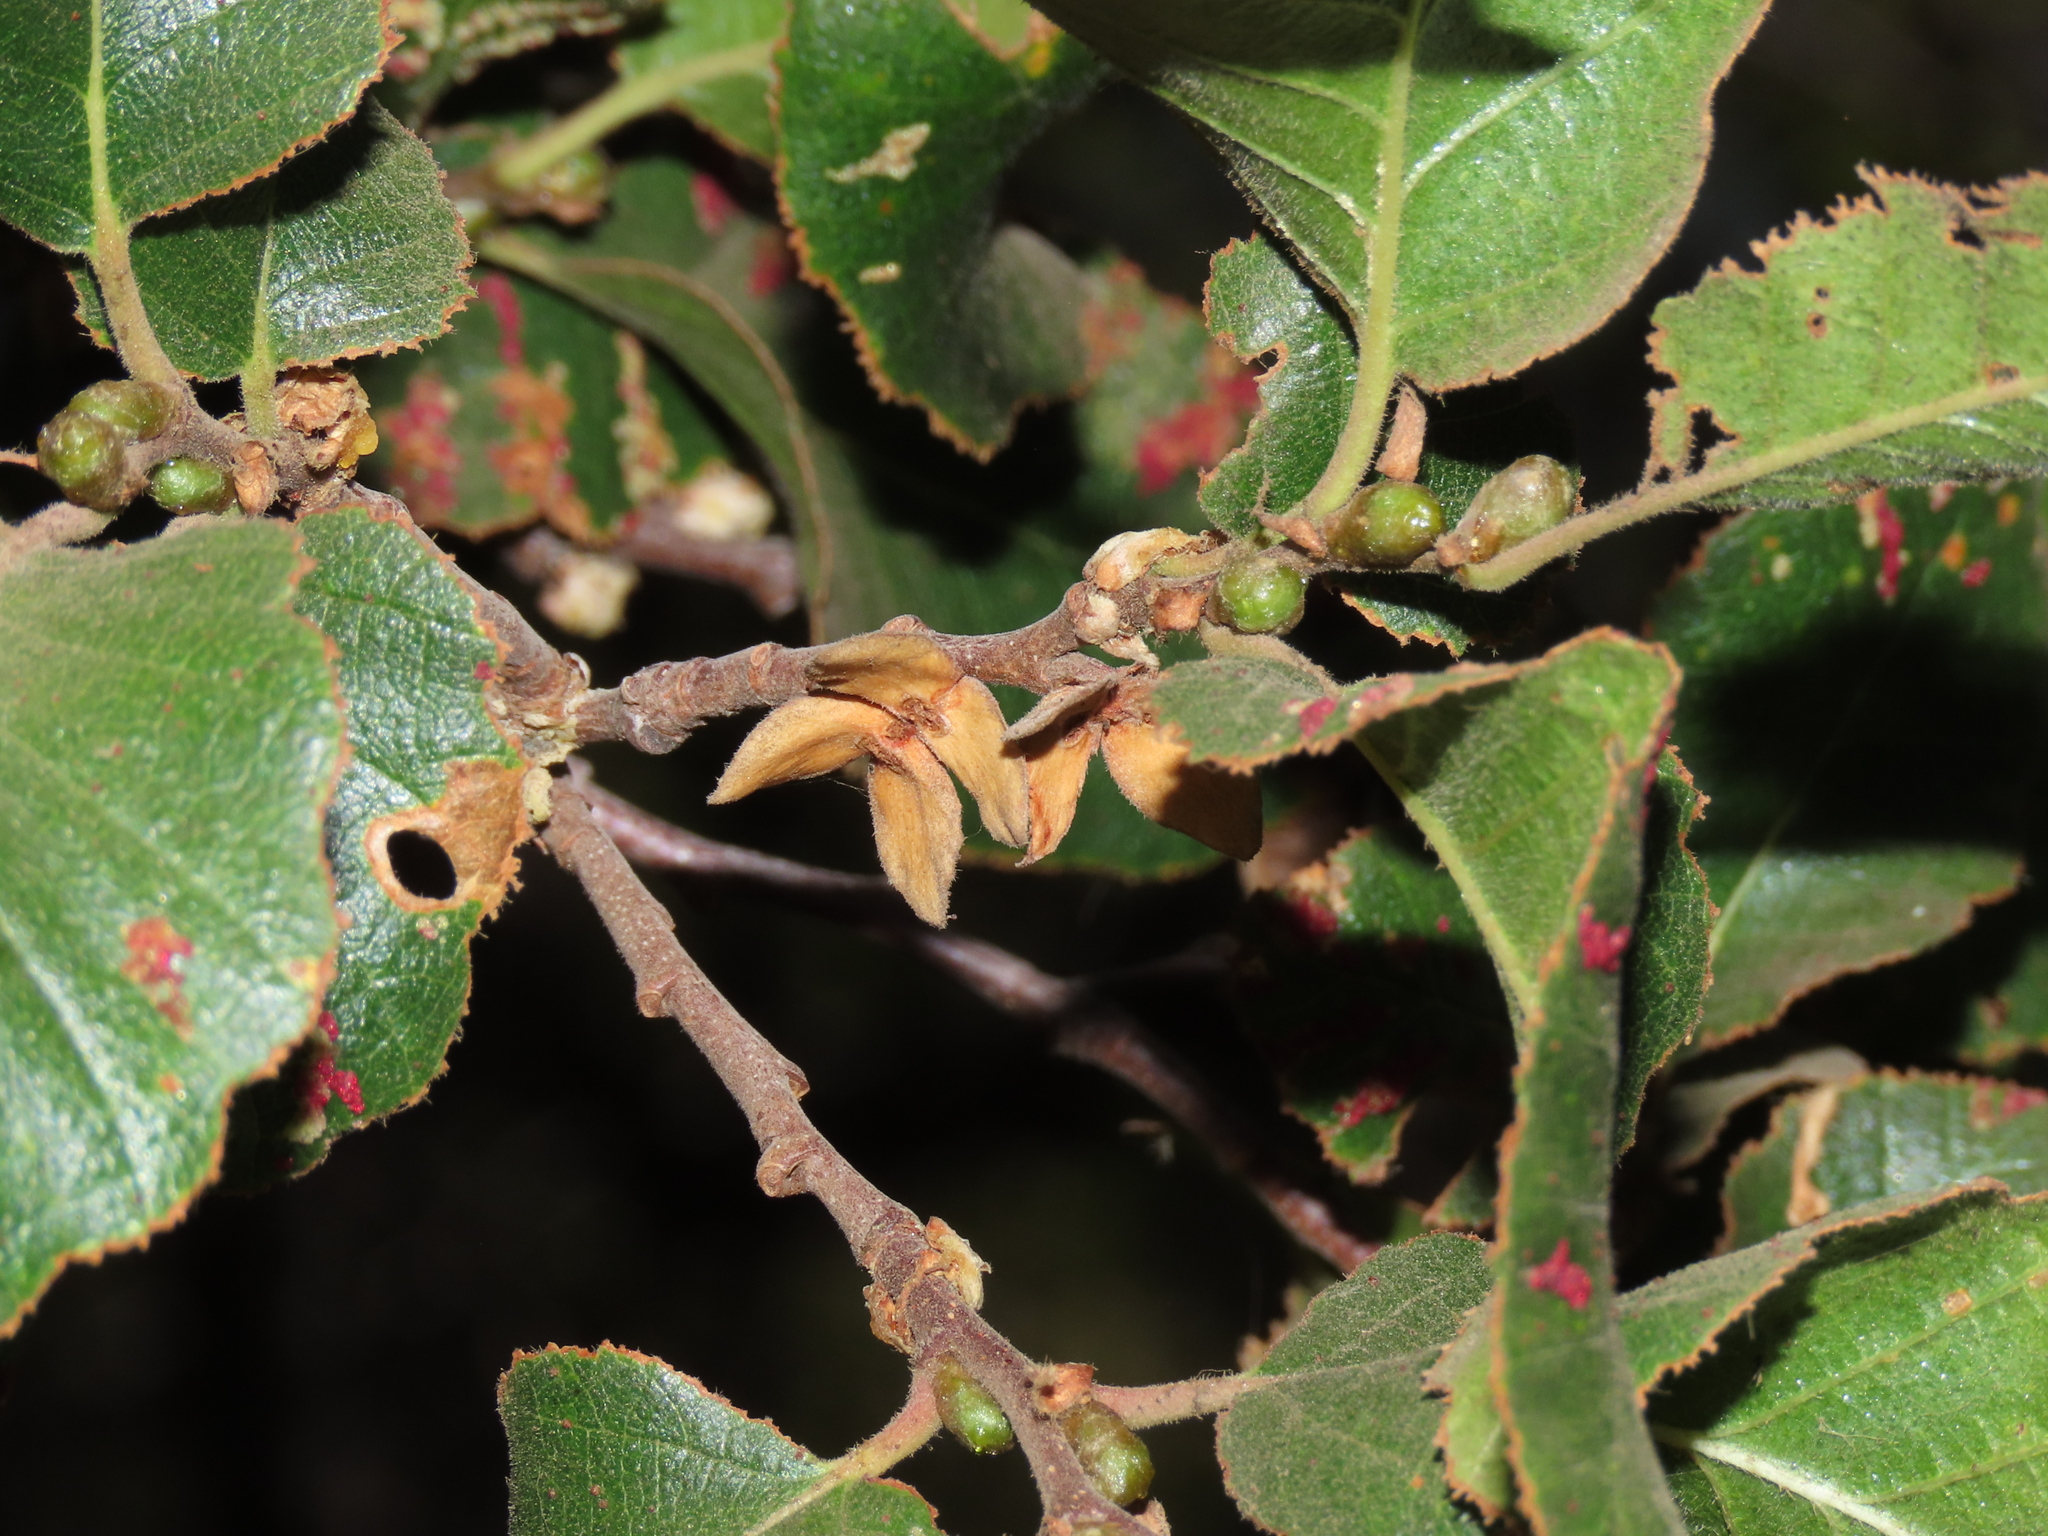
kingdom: Plantae
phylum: Tracheophyta
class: Magnoliopsida
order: Fagales
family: Nothofagaceae
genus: Nothofagus
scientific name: Nothofagus macrocarpa
